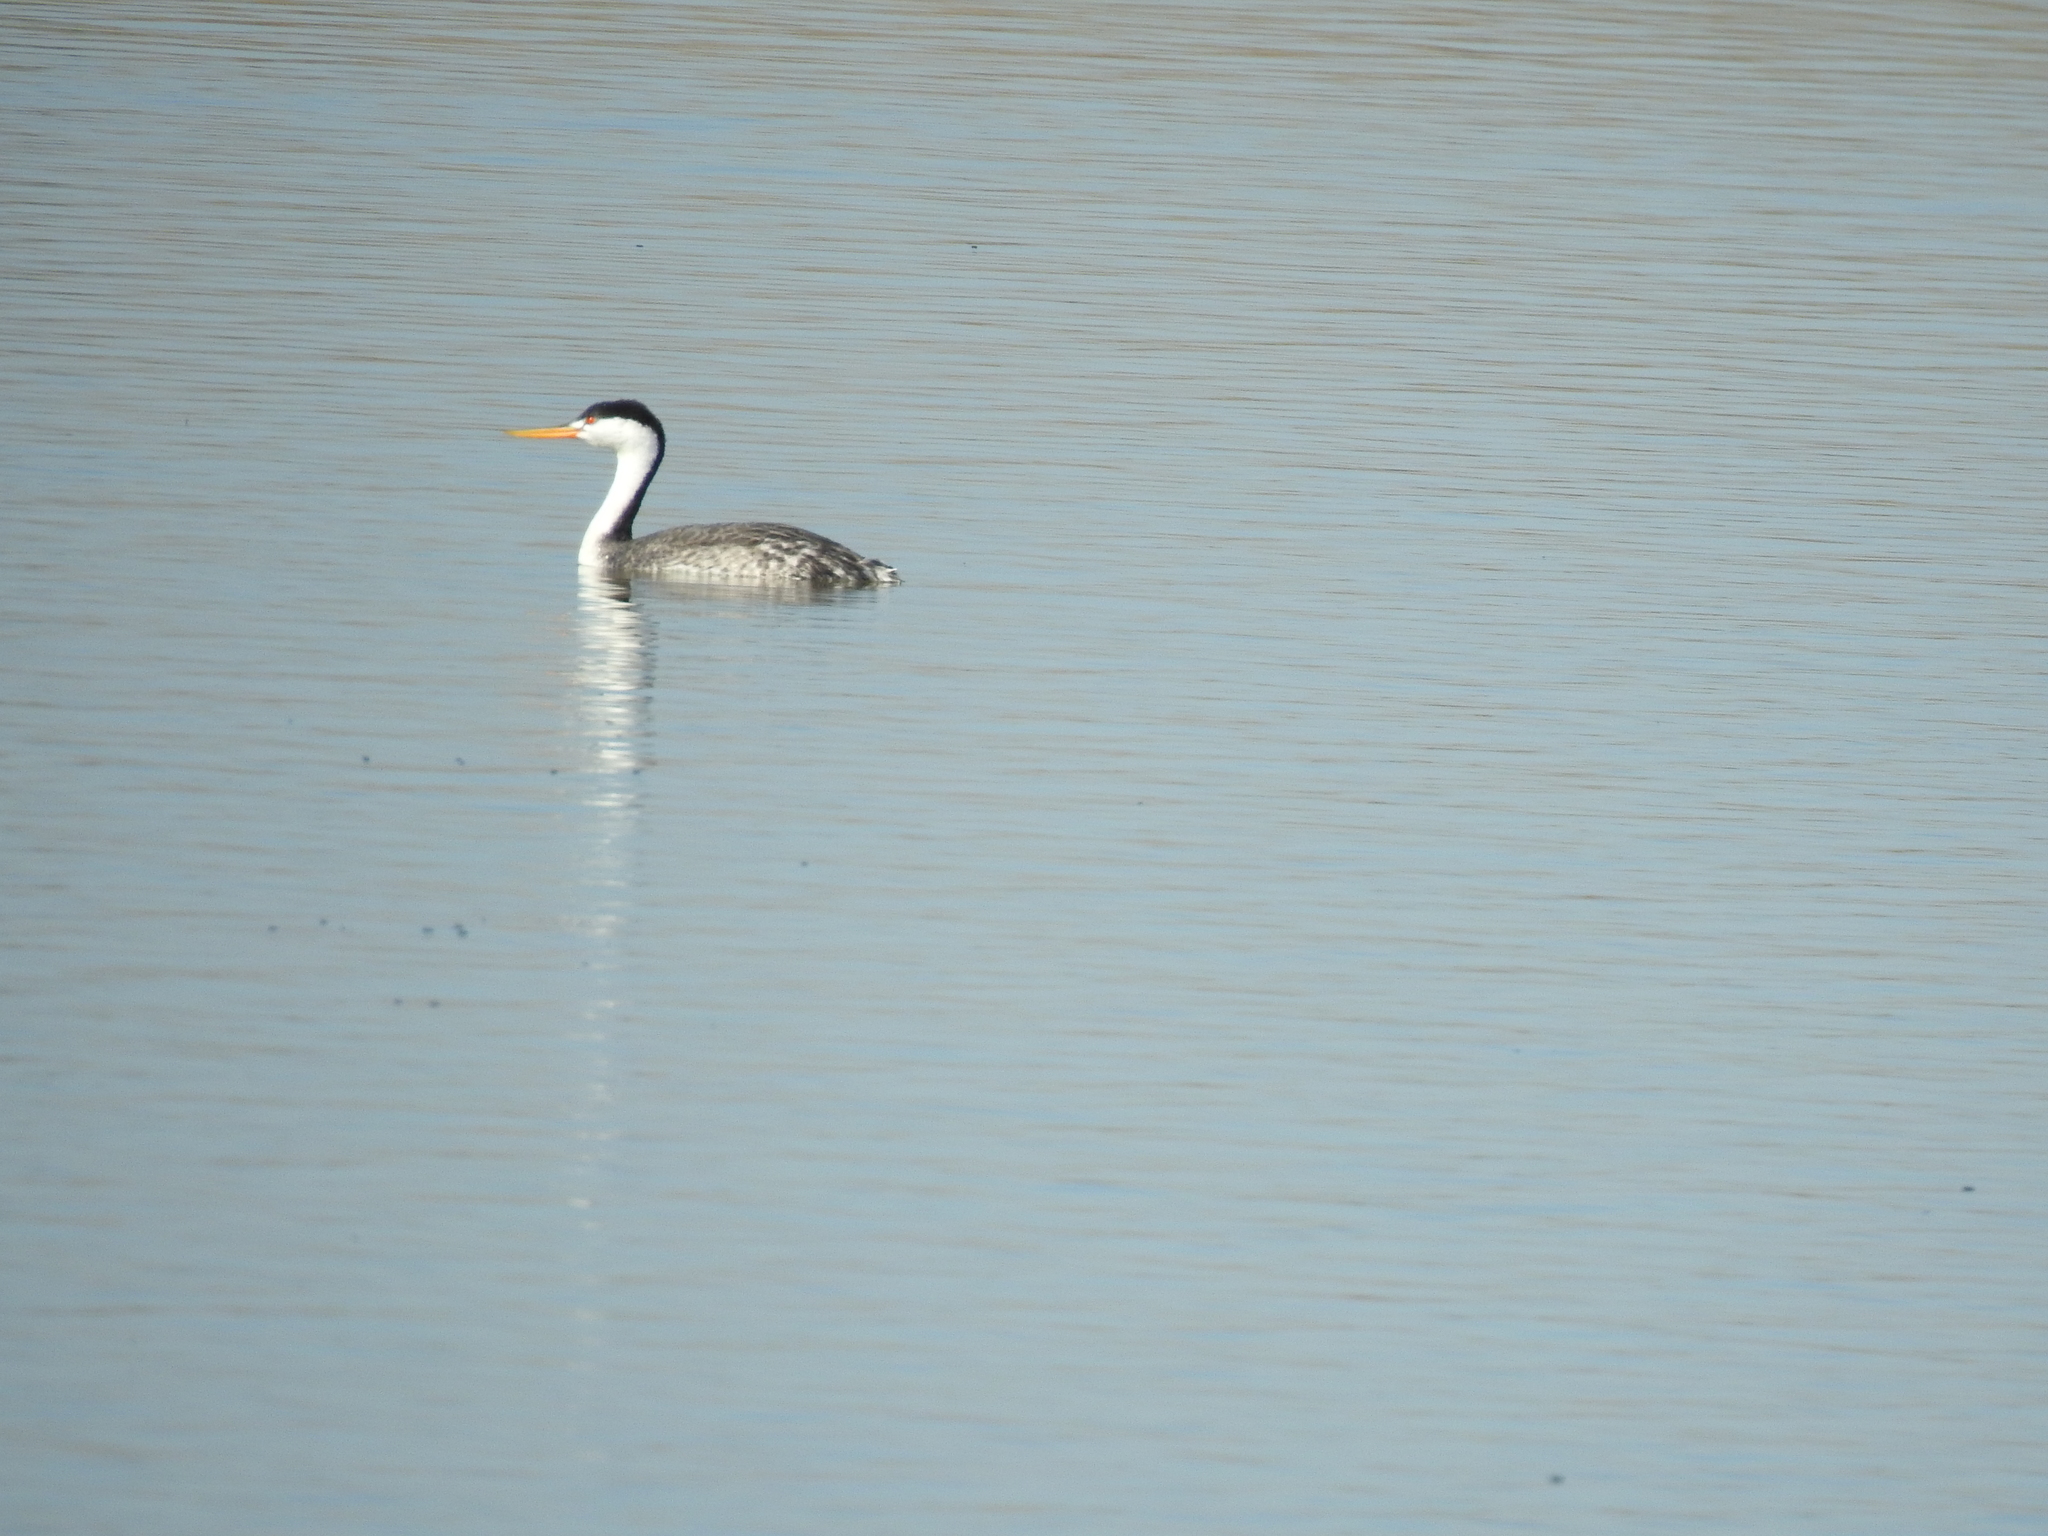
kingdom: Animalia
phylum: Chordata
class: Aves
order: Podicipediformes
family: Podicipedidae
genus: Aechmophorus
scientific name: Aechmophorus clarkii
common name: Clark's grebe
